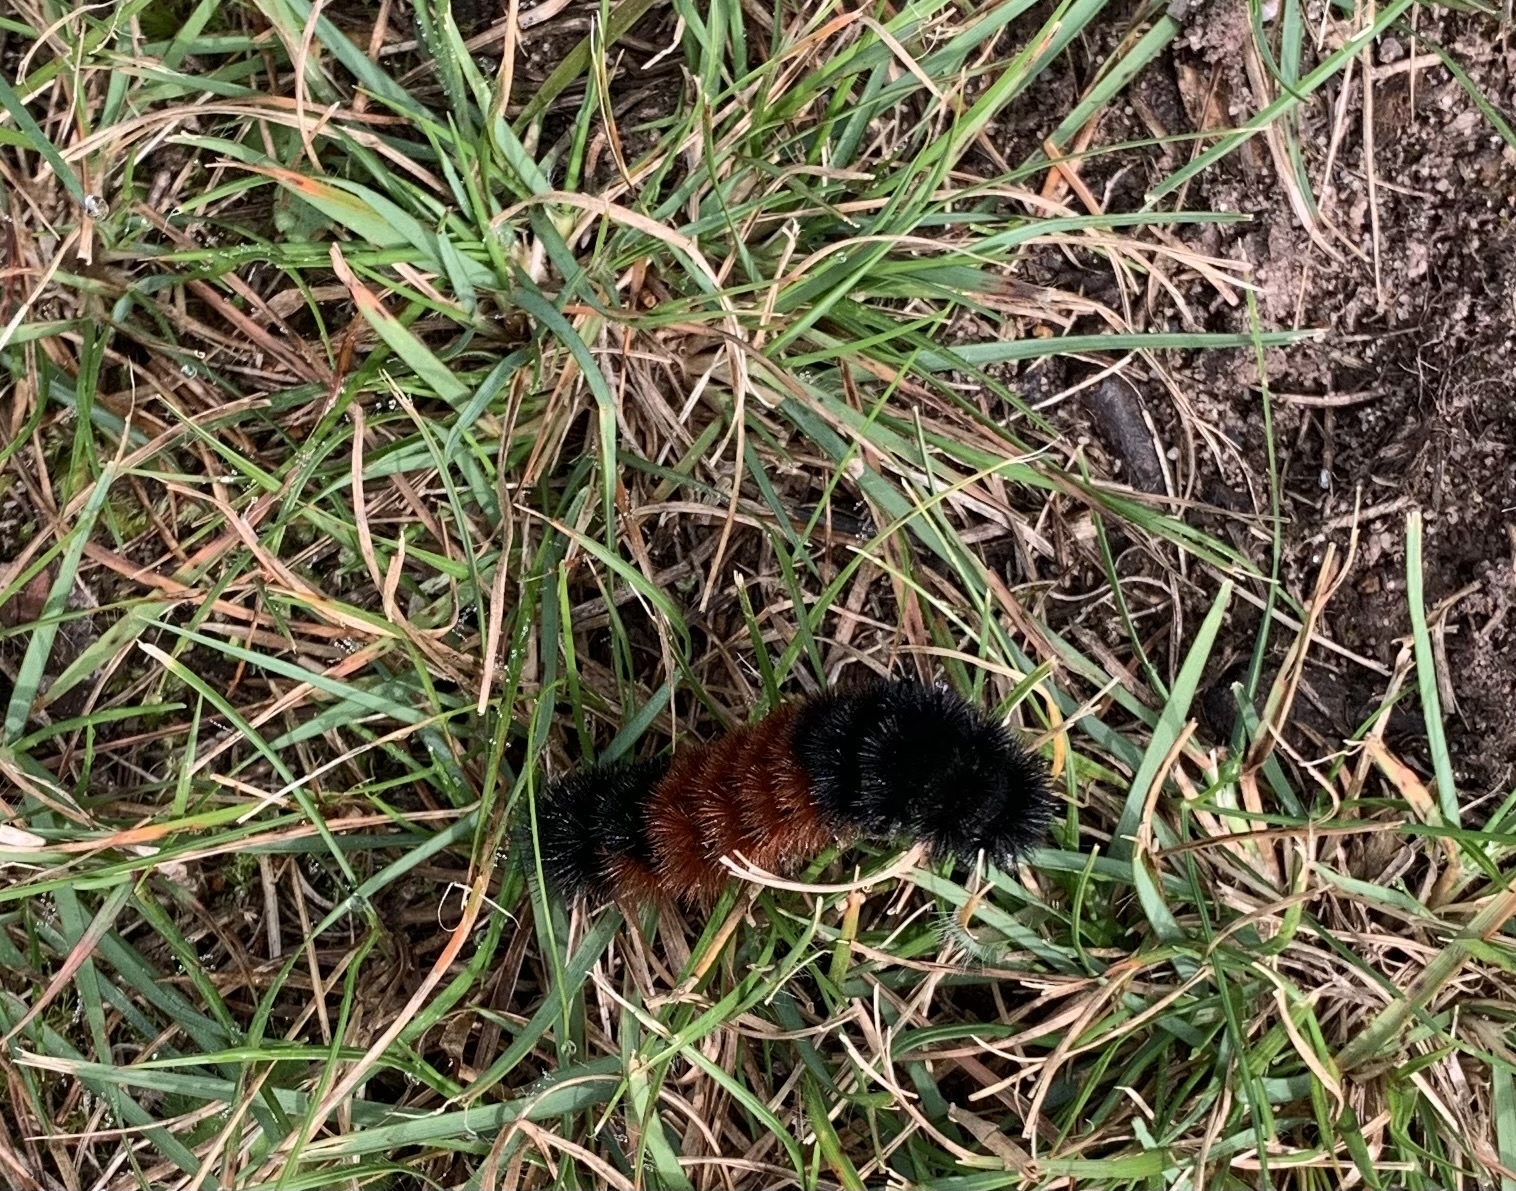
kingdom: Animalia
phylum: Arthropoda
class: Insecta
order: Lepidoptera
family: Erebidae
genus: Pyrrharctia
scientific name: Pyrrharctia isabella
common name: Isabella tiger moth
